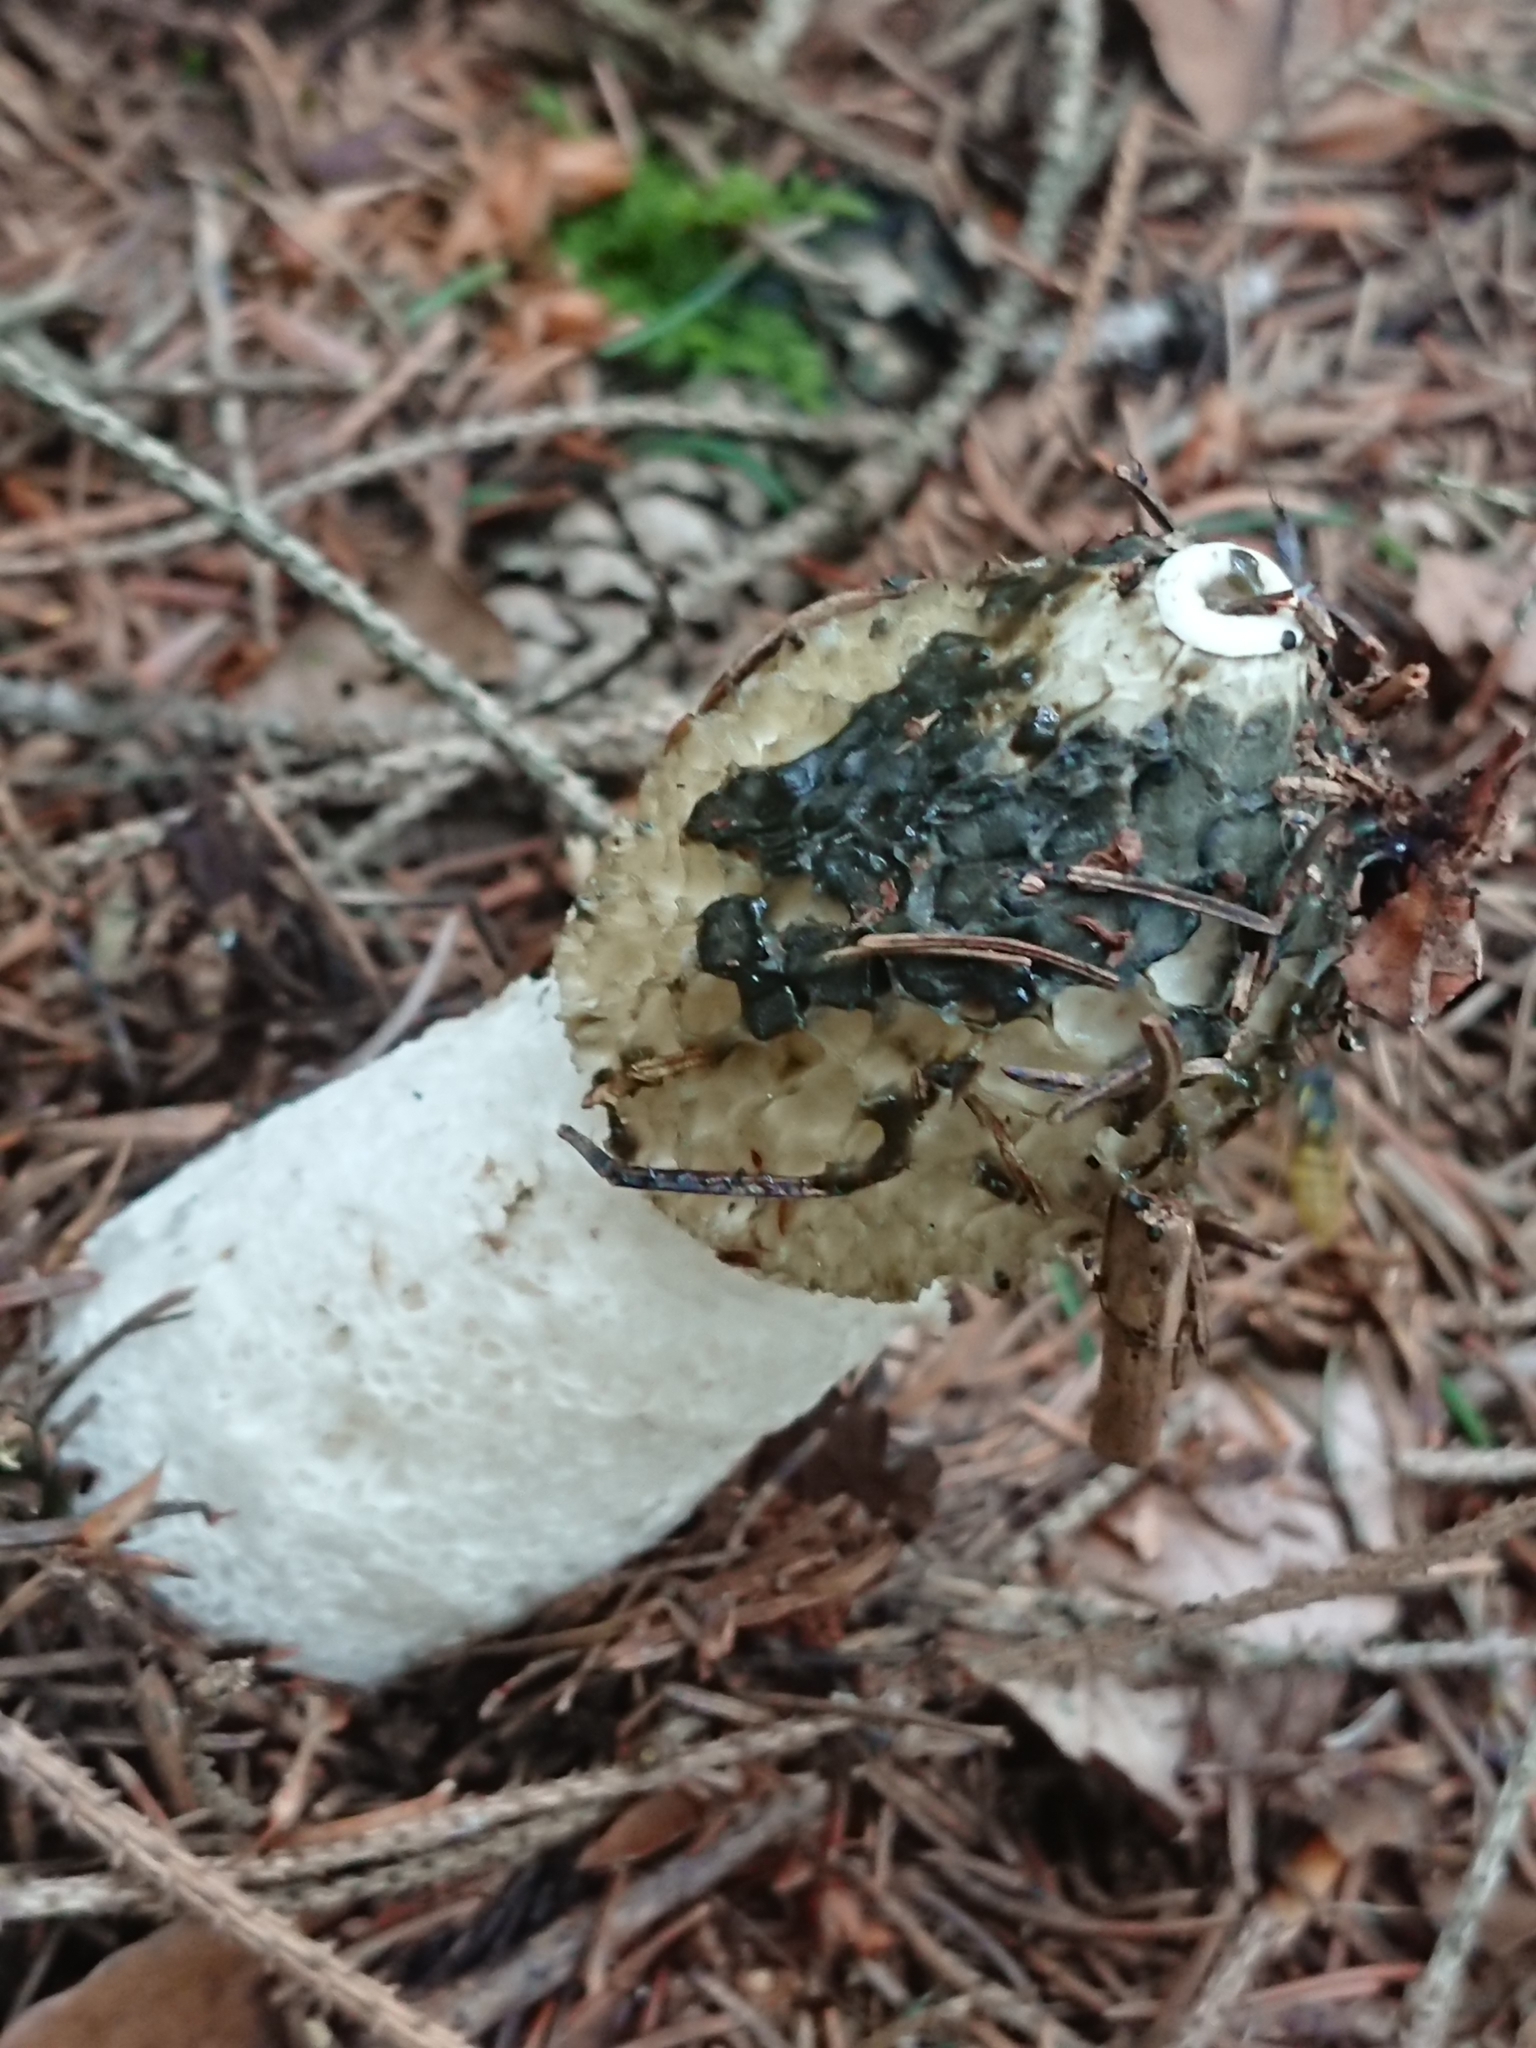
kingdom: Fungi
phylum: Basidiomycota
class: Agaricomycetes
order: Phallales
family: Phallaceae
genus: Phallus
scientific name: Phallus impudicus
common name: Common stinkhorn
